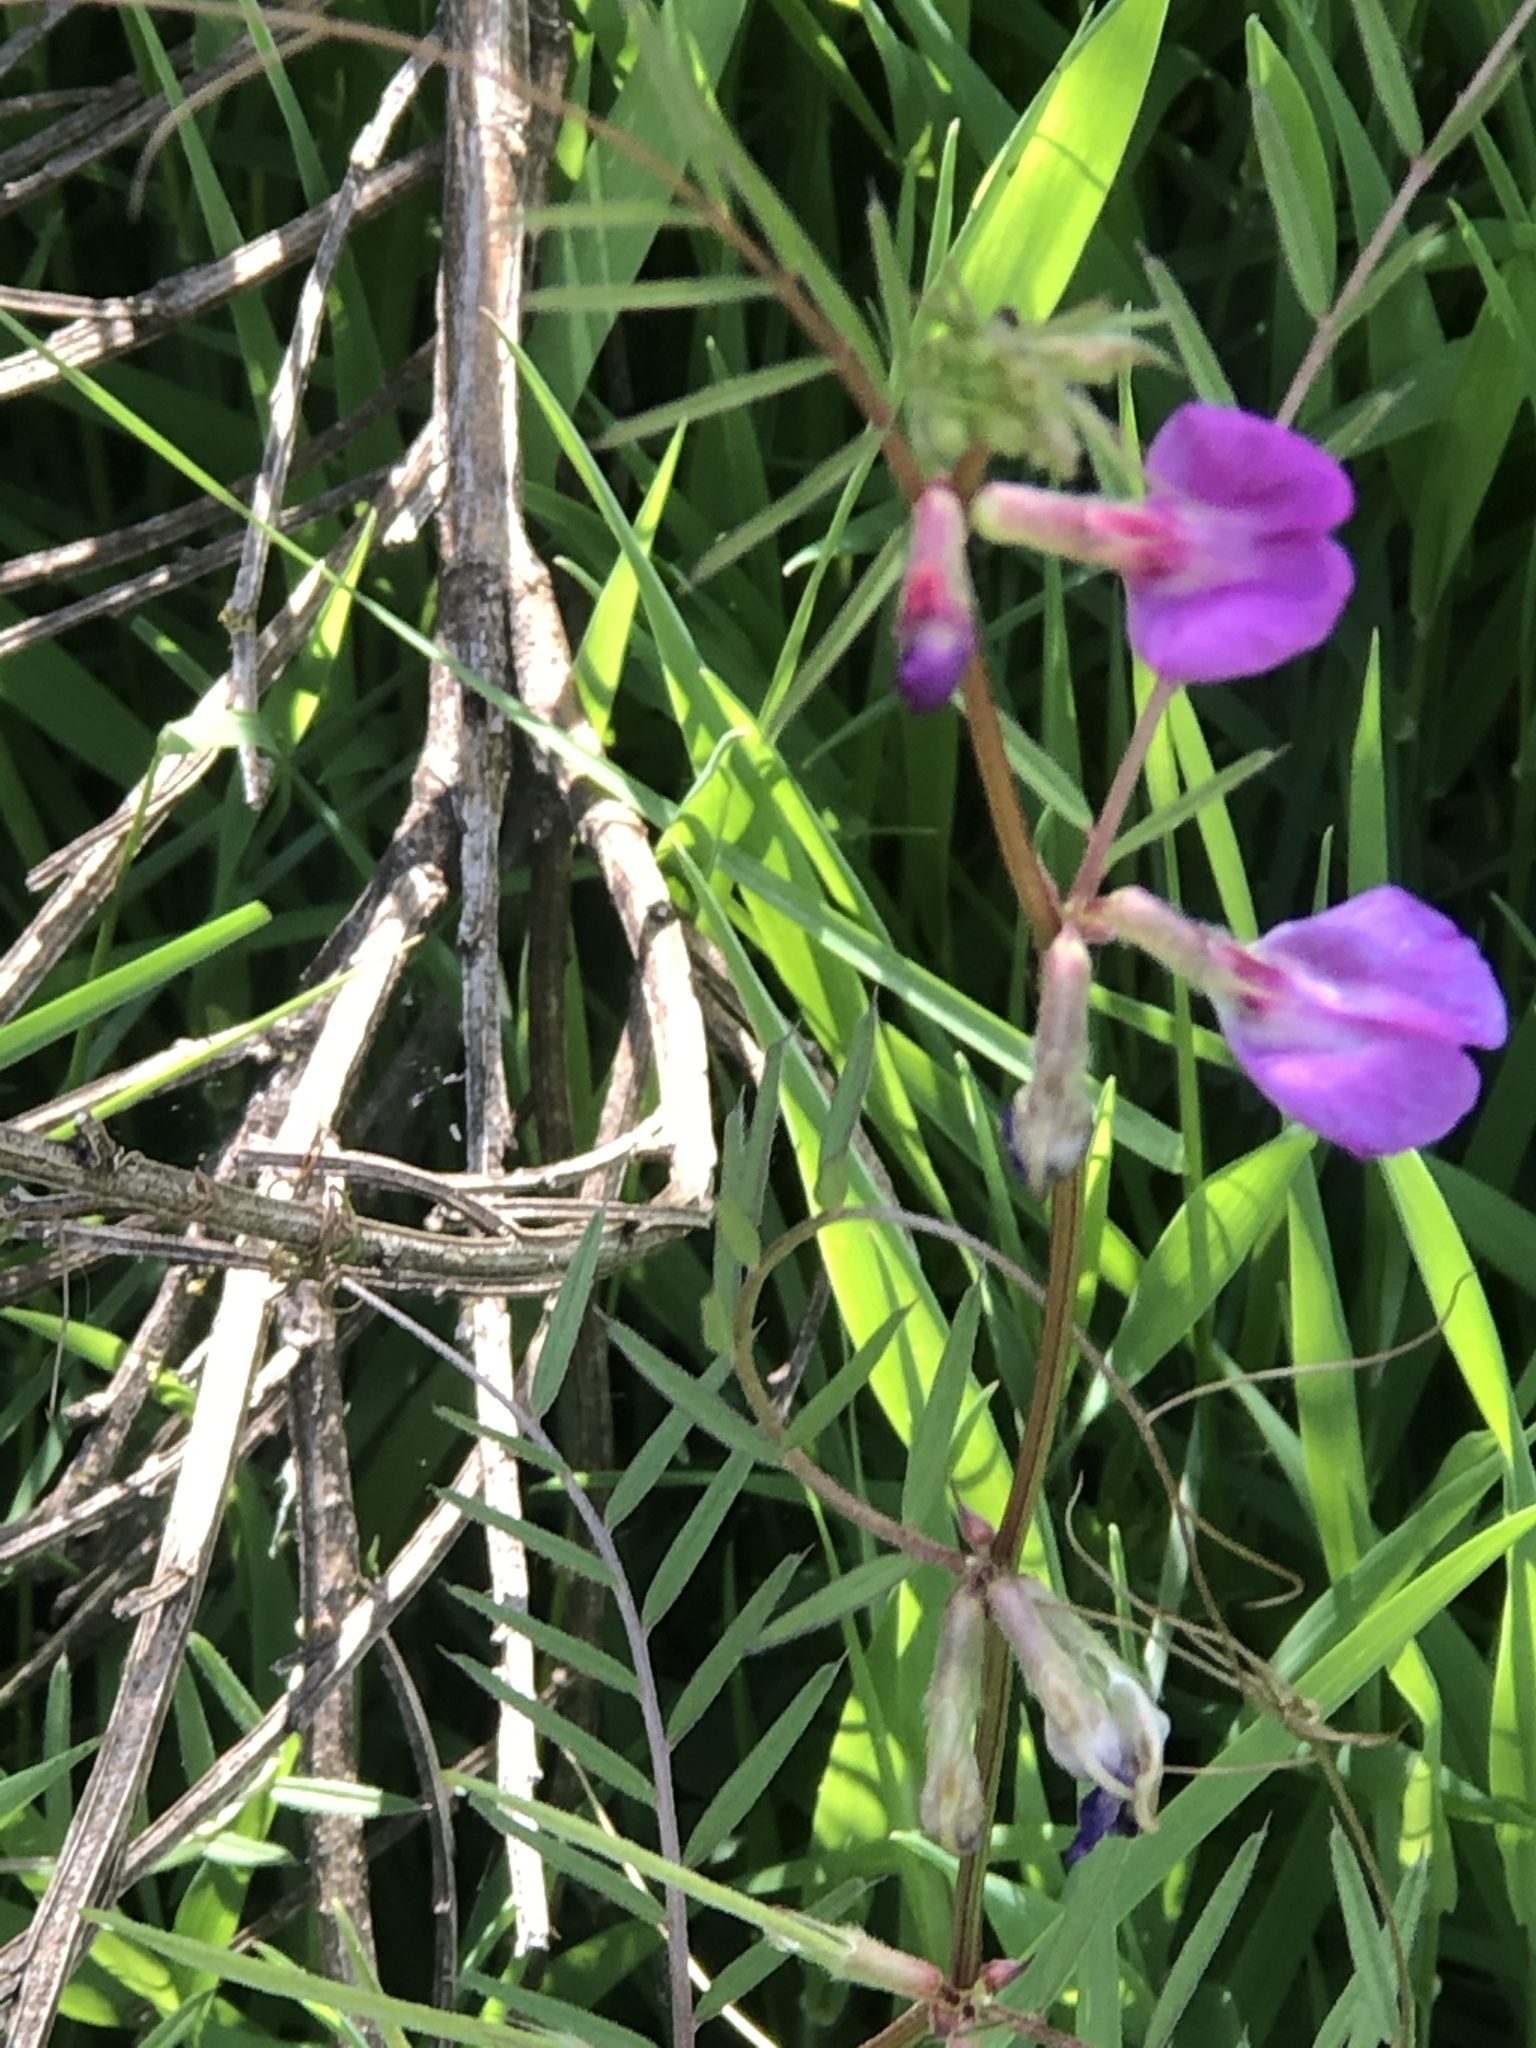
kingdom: Plantae
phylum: Tracheophyta
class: Magnoliopsida
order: Fabales
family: Fabaceae
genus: Vicia
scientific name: Vicia sativa
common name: Garden vetch
